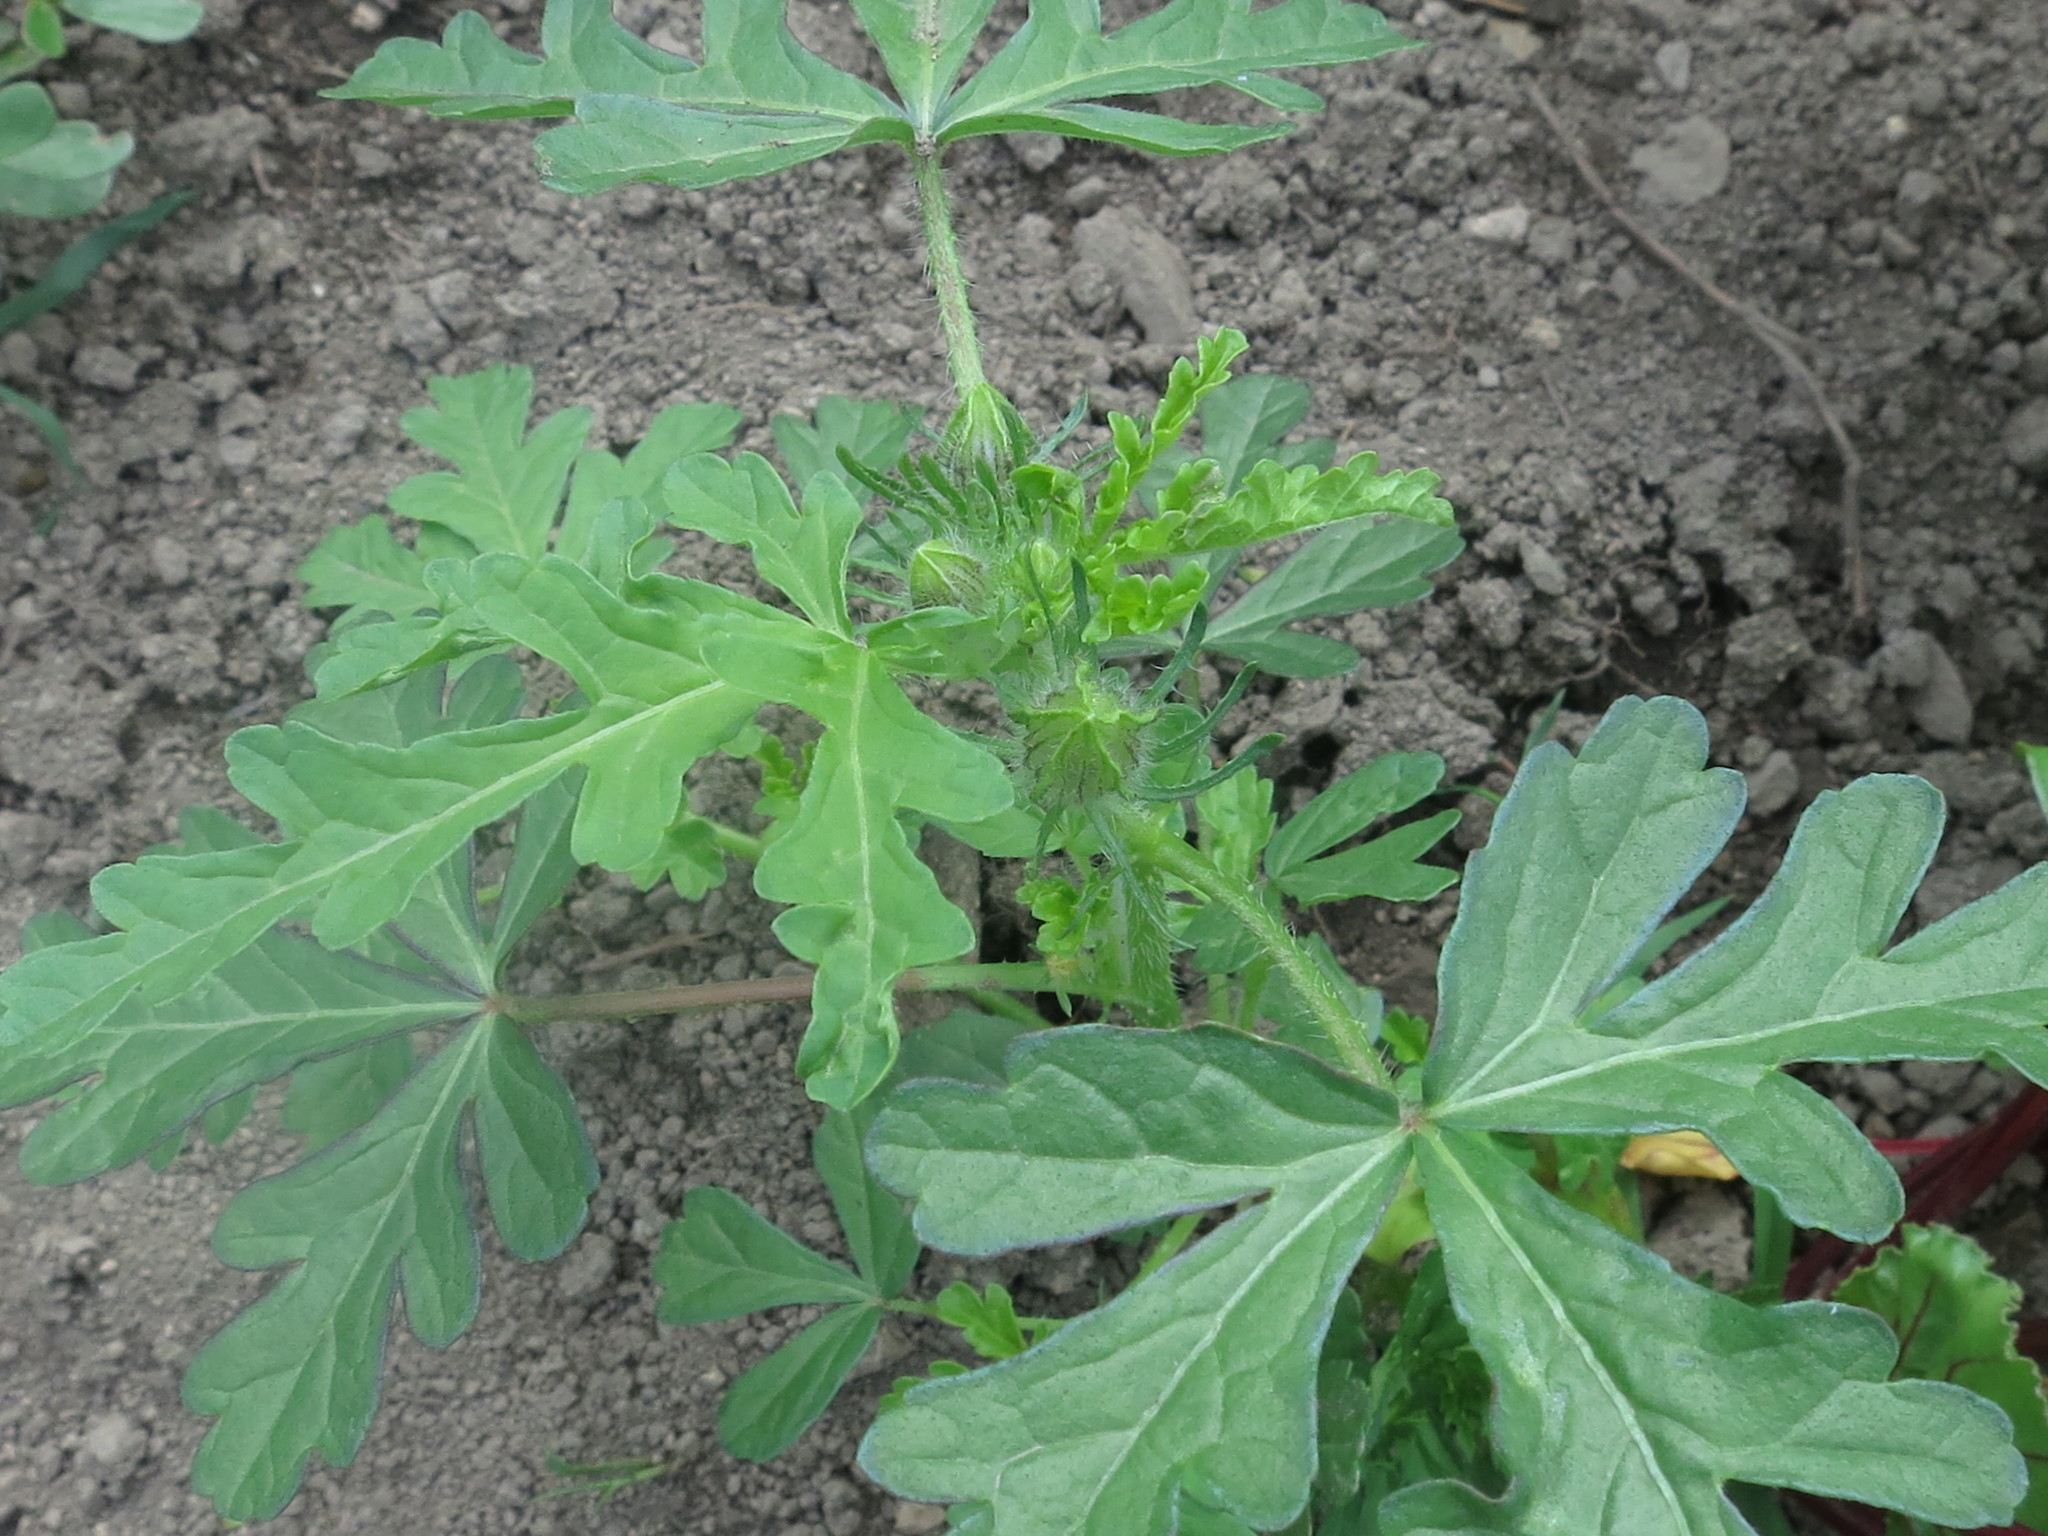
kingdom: Plantae
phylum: Tracheophyta
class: Magnoliopsida
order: Malvales
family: Malvaceae
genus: Hibiscus
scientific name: Hibiscus trionum
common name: Bladder ketmia
